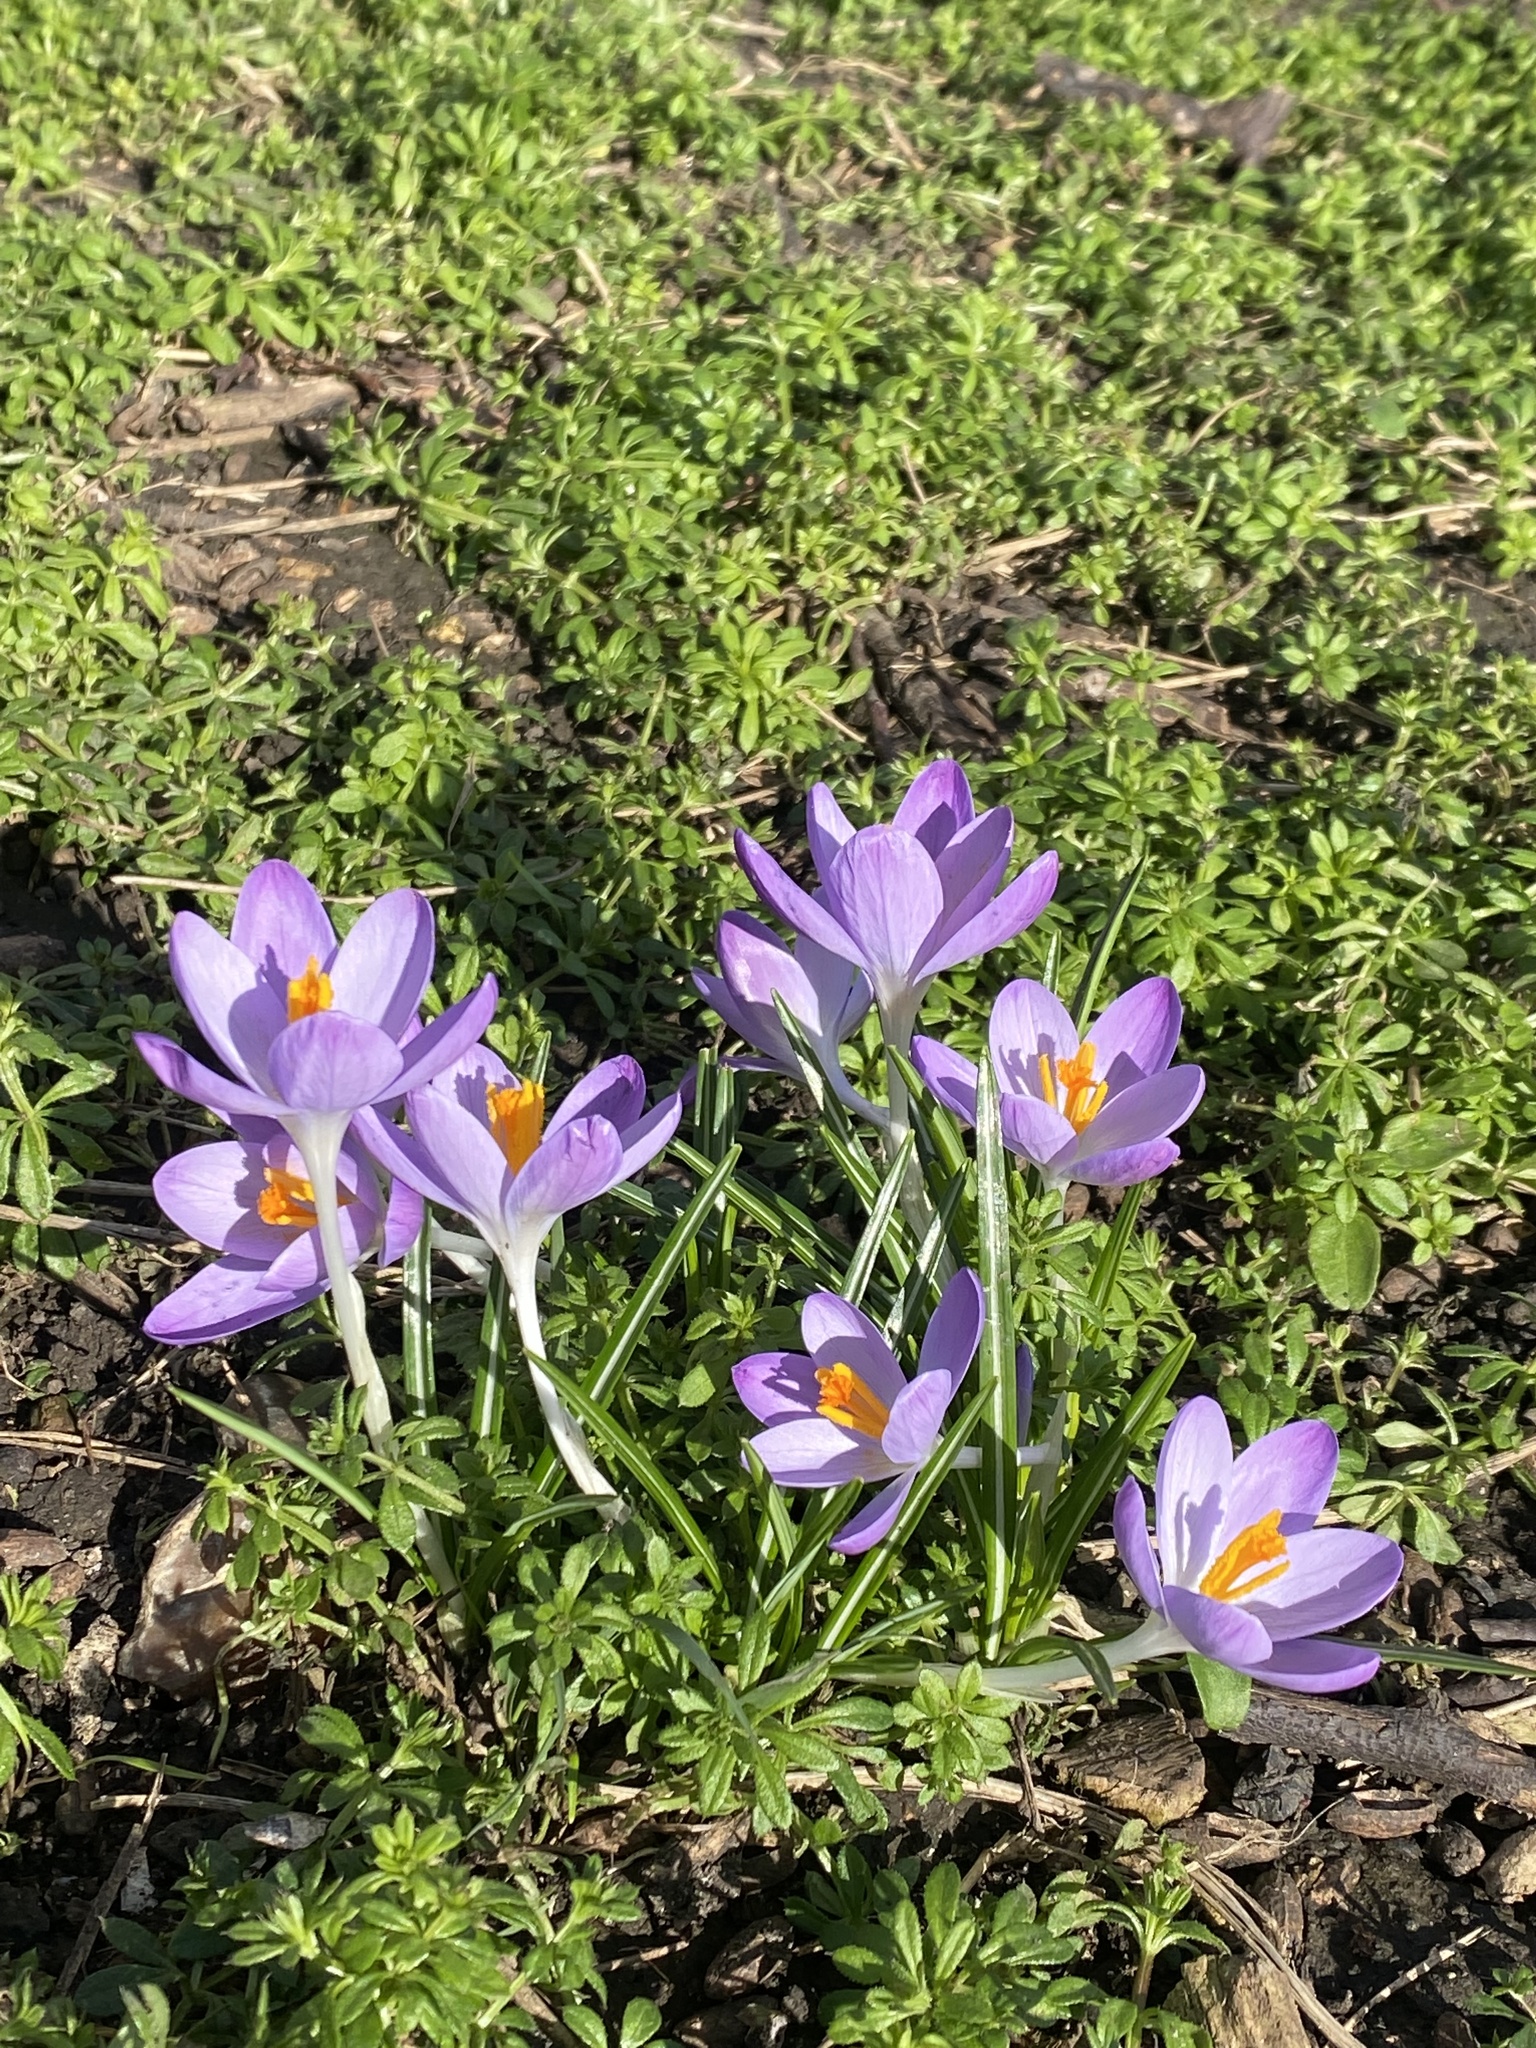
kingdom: Plantae
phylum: Tracheophyta
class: Liliopsida
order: Asparagales
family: Iridaceae
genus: Crocus
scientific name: Crocus tommasinianus
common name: Early crocus
